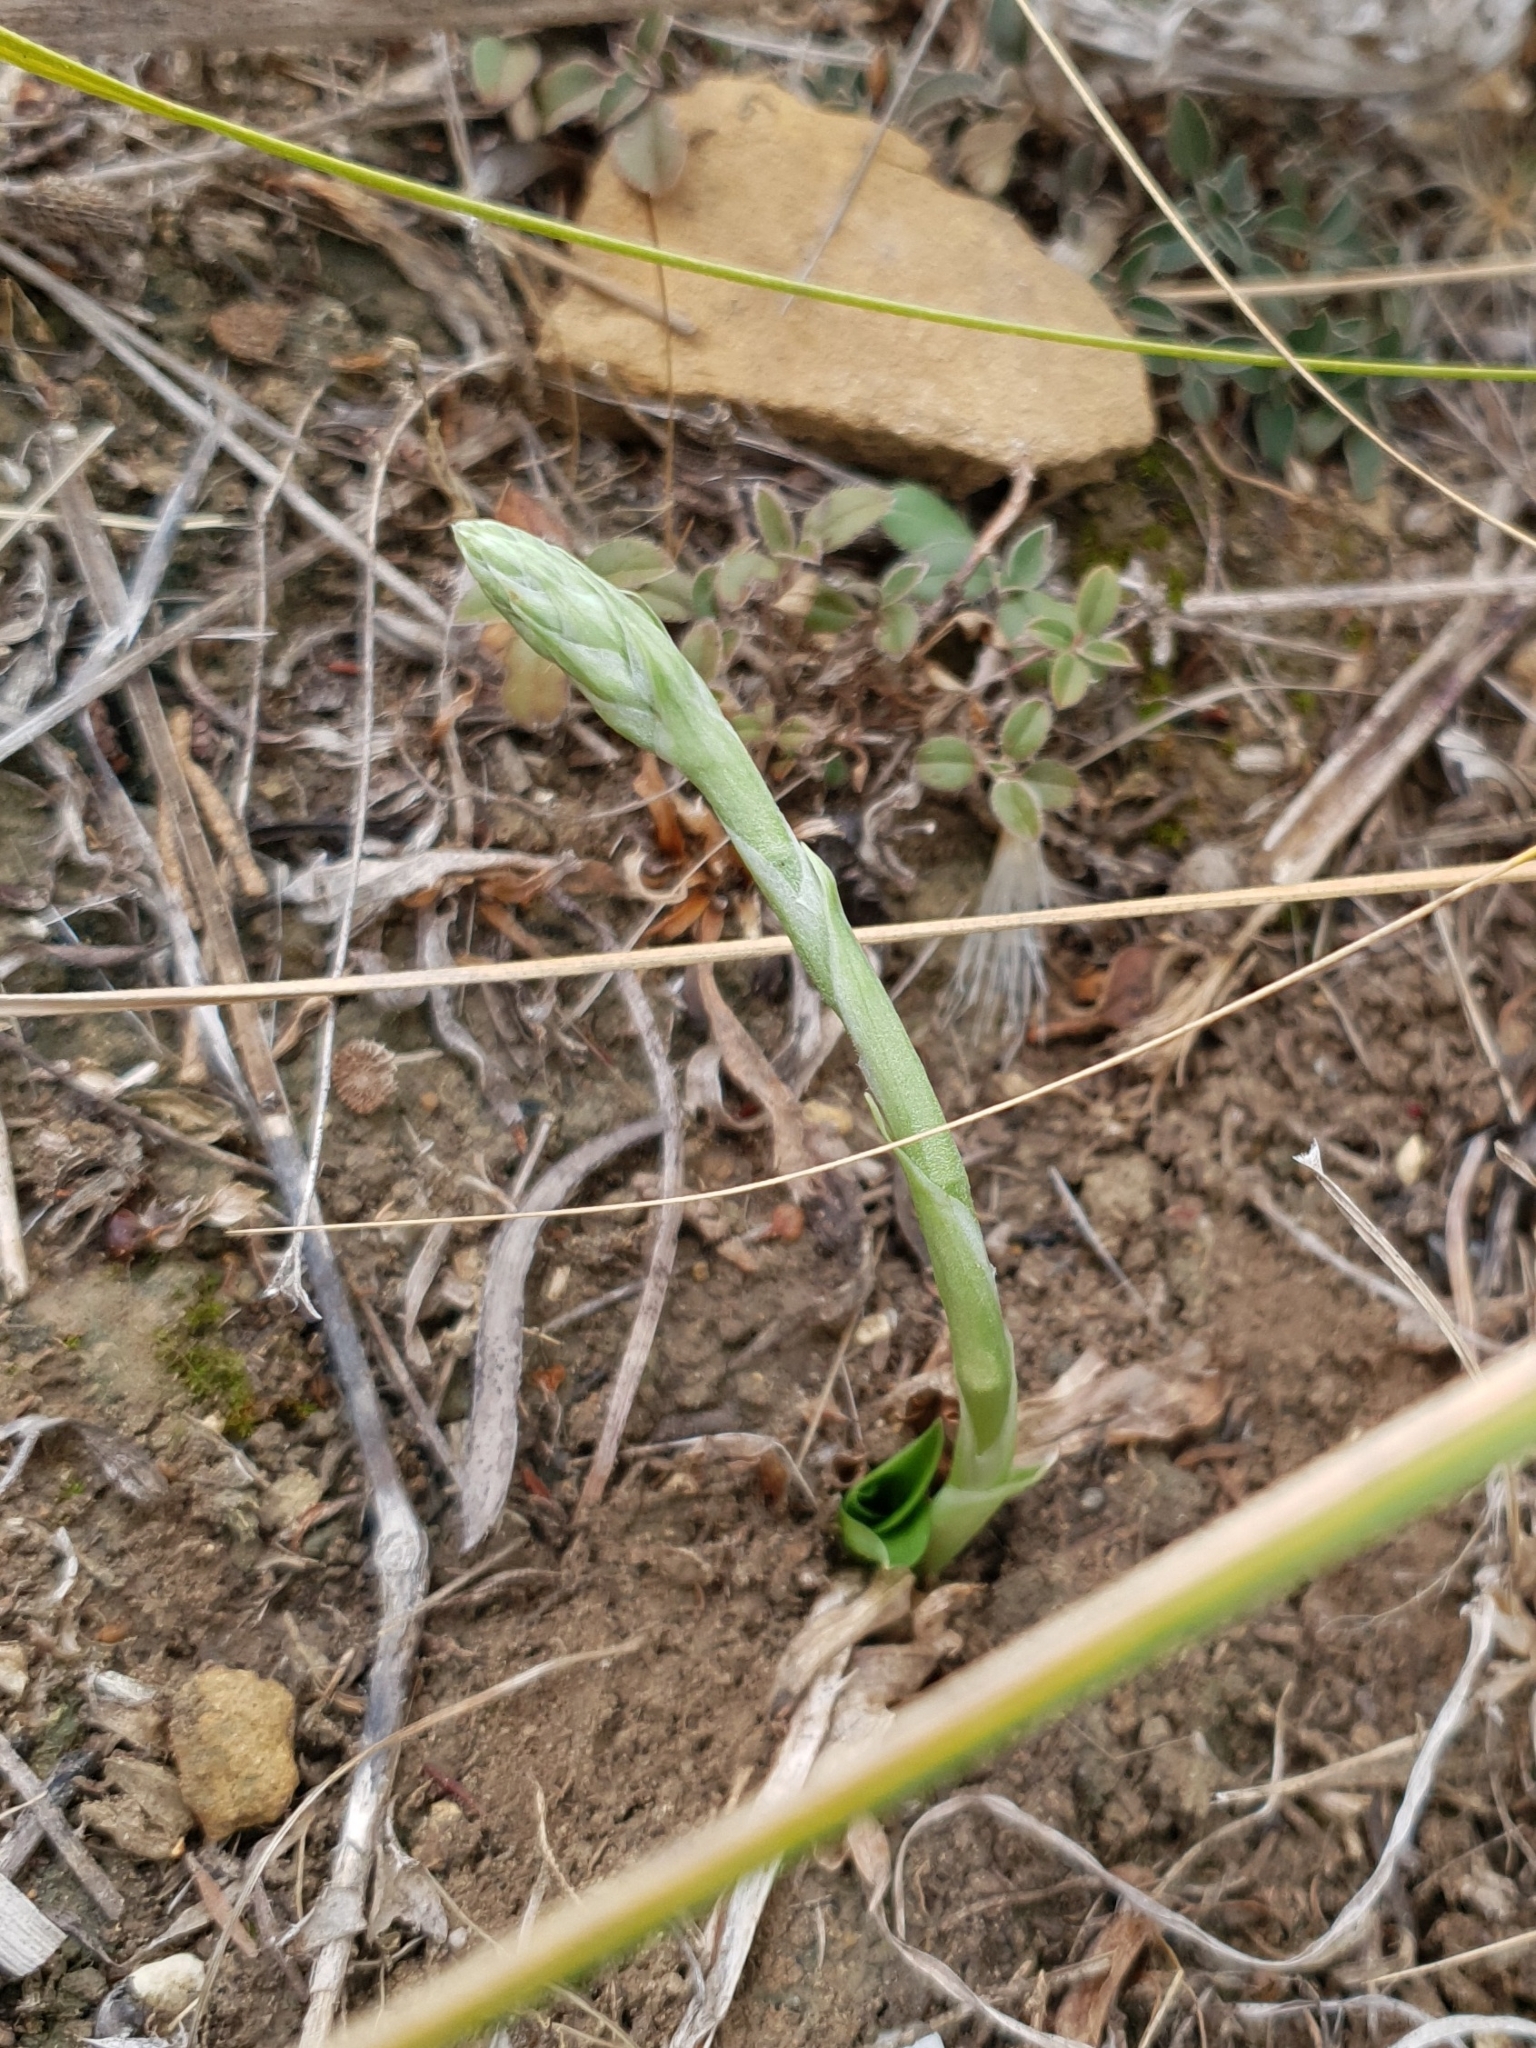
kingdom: Plantae
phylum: Tracheophyta
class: Liliopsida
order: Asparagales
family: Orchidaceae
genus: Spiranthes
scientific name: Spiranthes spiralis
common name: Autumn lady's-tresses
